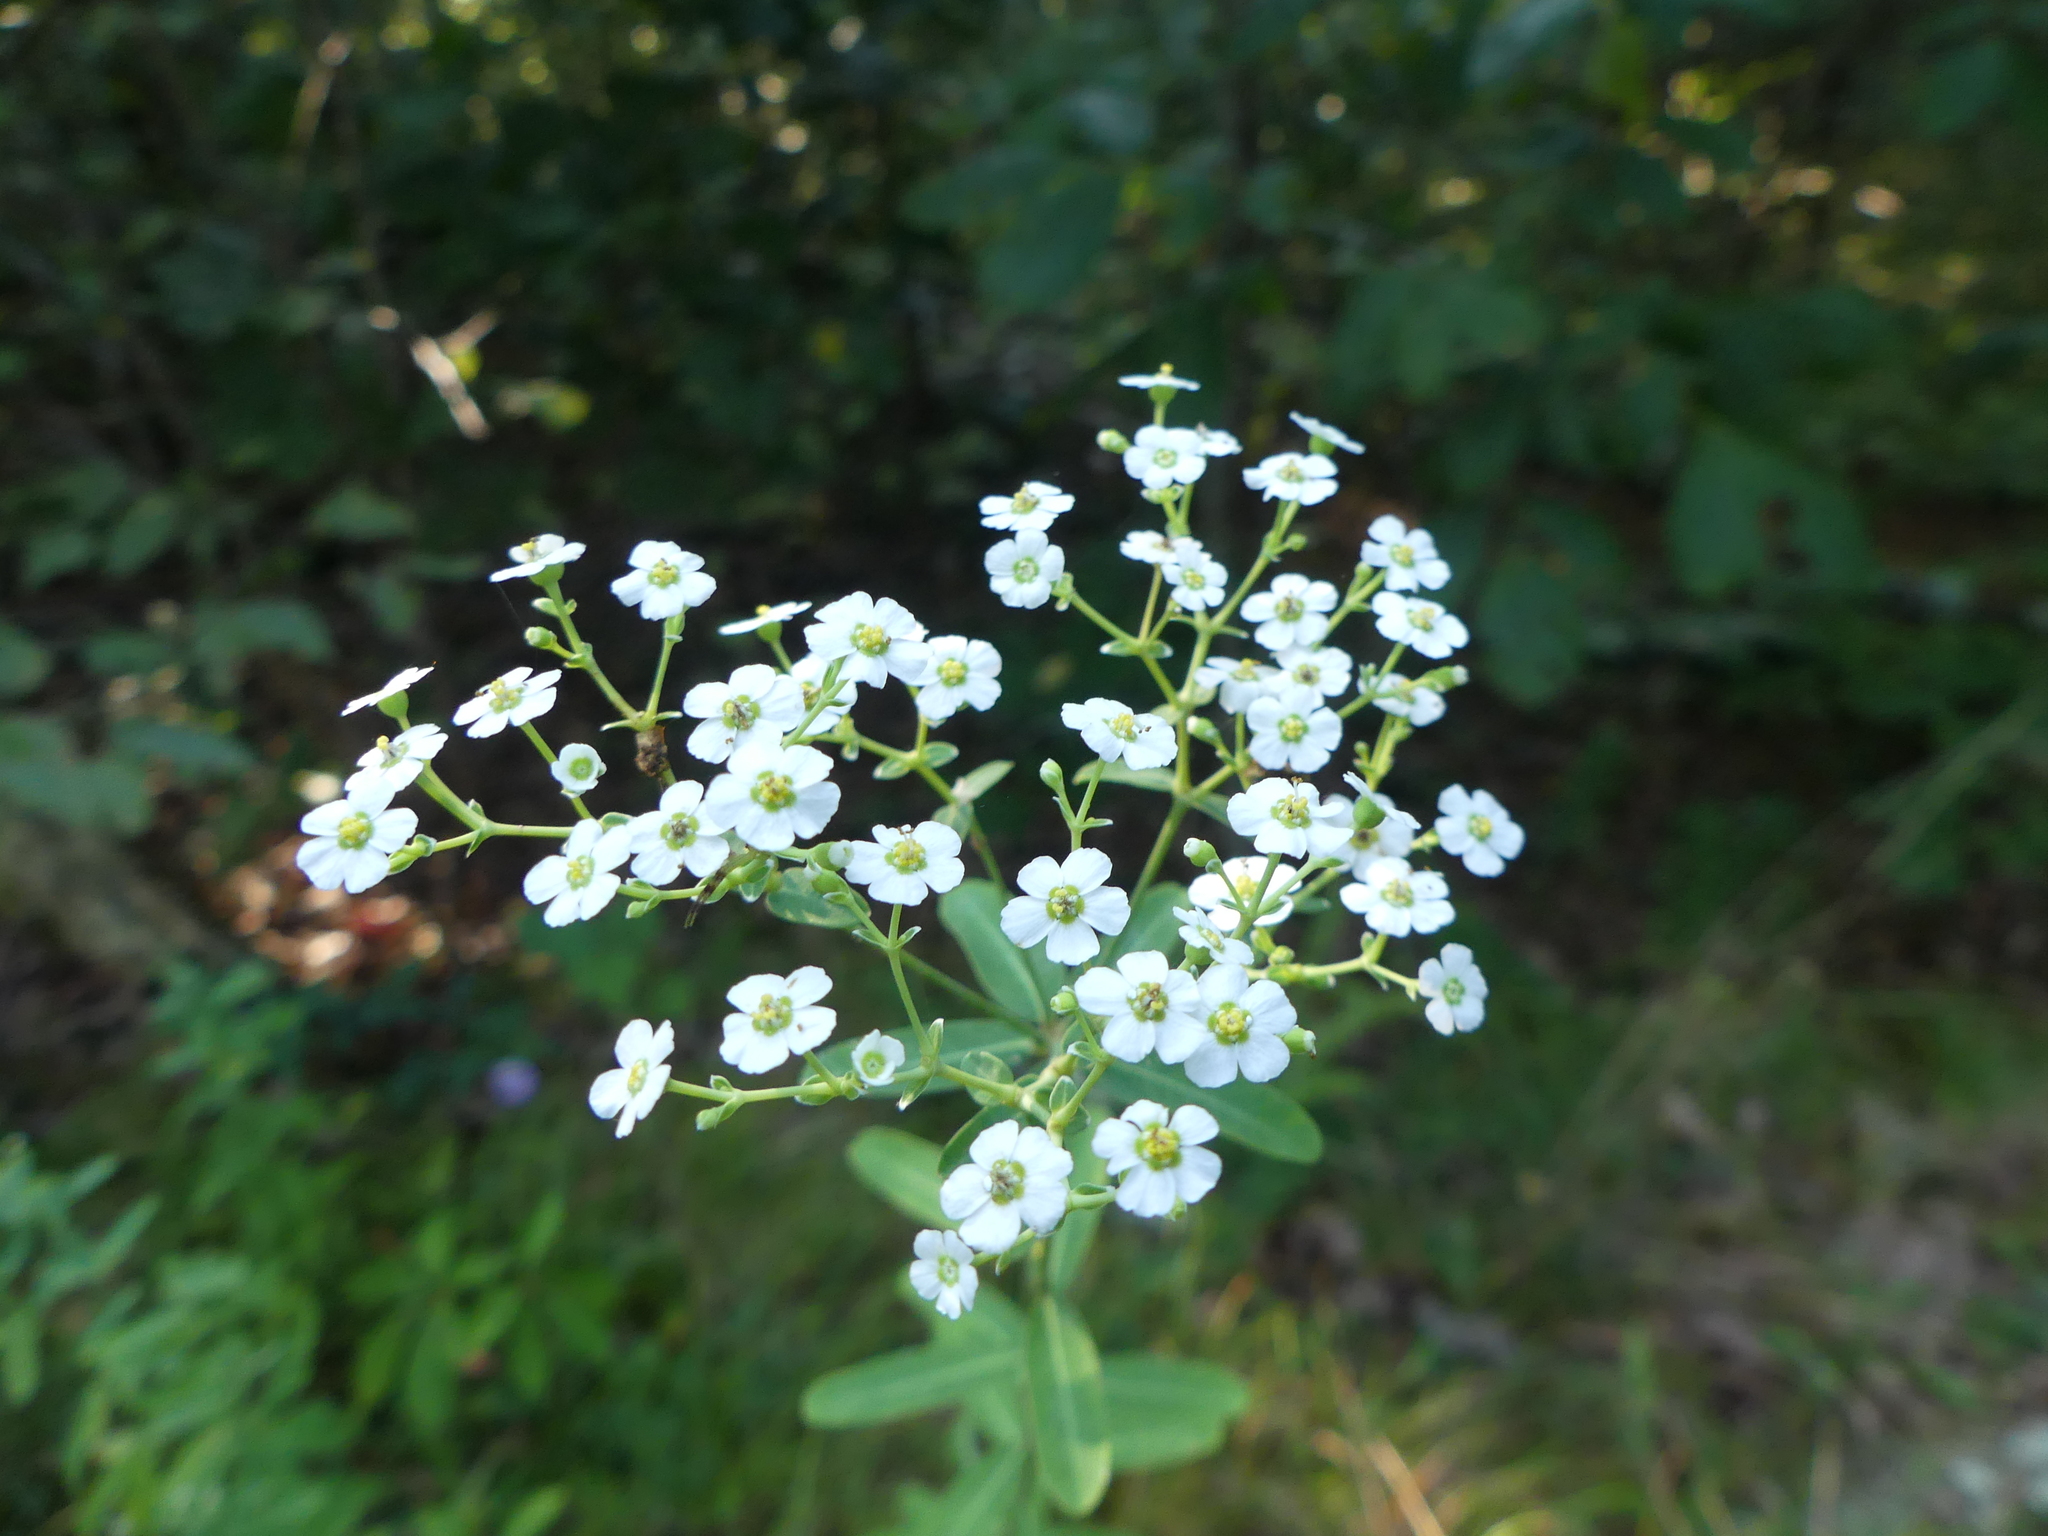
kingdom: Plantae
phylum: Tracheophyta
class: Magnoliopsida
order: Malpighiales
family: Euphorbiaceae
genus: Euphorbia
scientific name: Euphorbia corollata
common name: Flowering spurge
